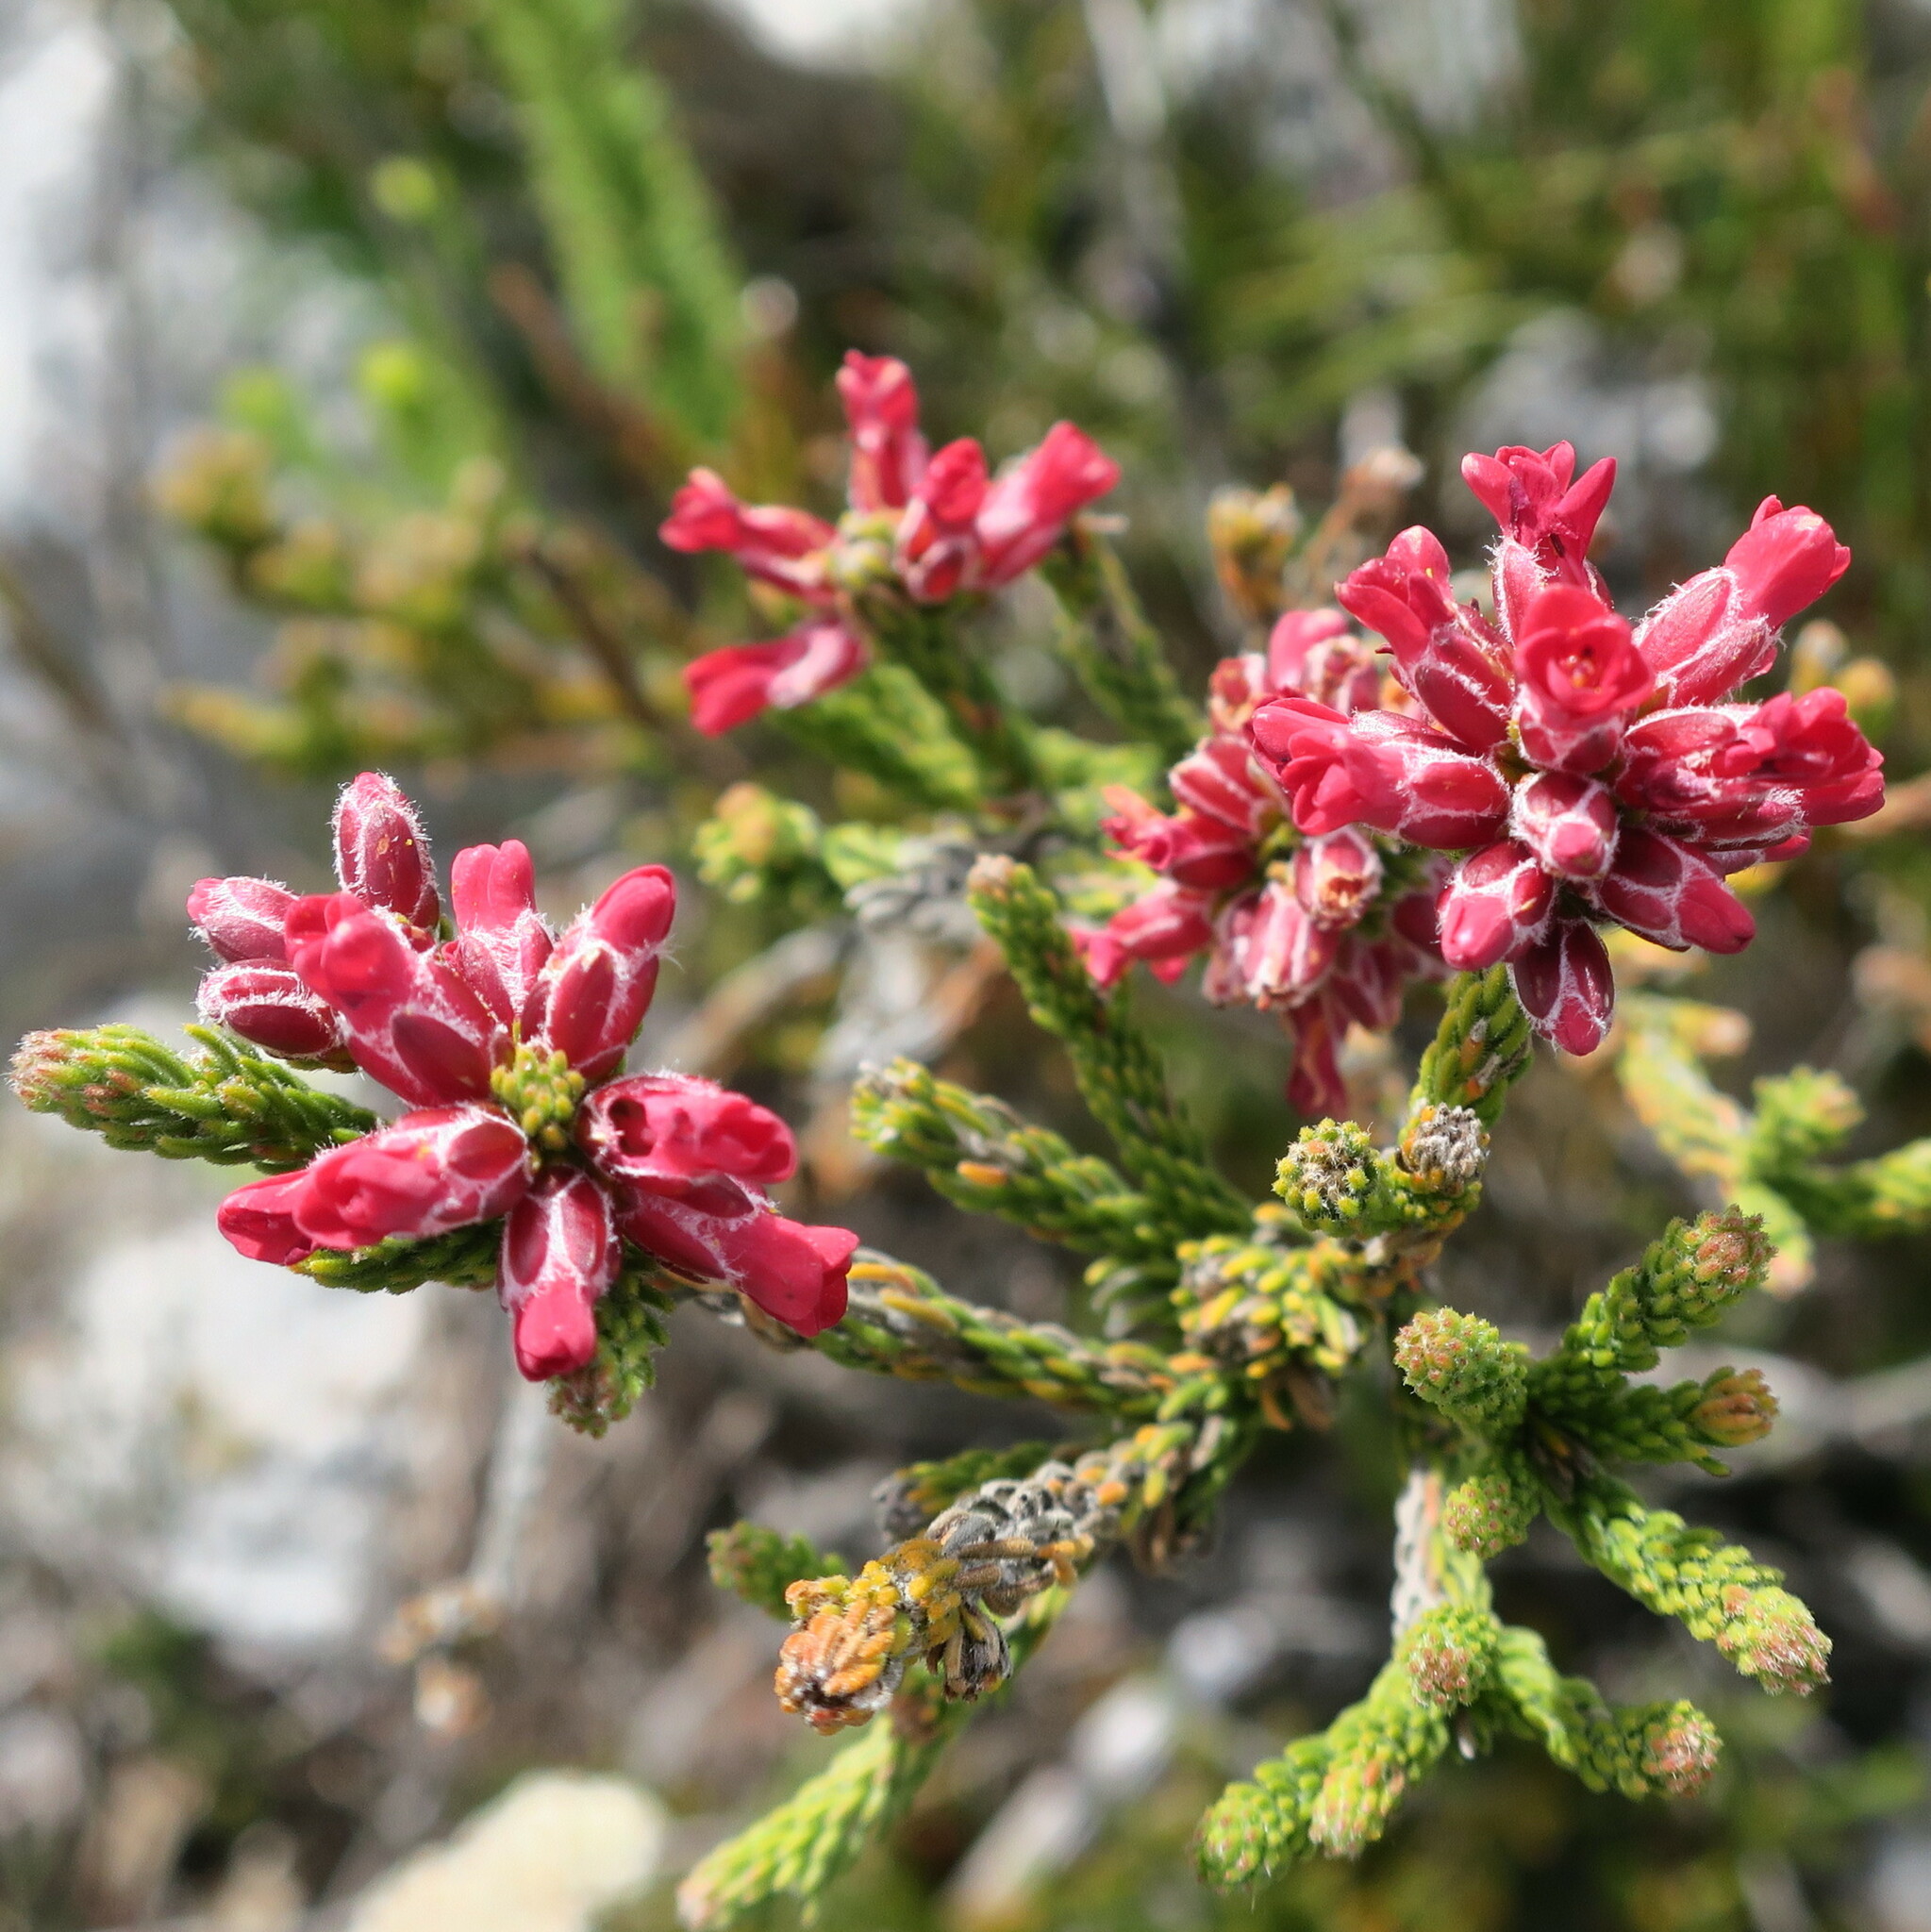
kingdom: Plantae
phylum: Tracheophyta
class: Magnoliopsida
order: Bruniales
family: Bruniaceae
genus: Audouinia
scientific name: Audouinia capitata
